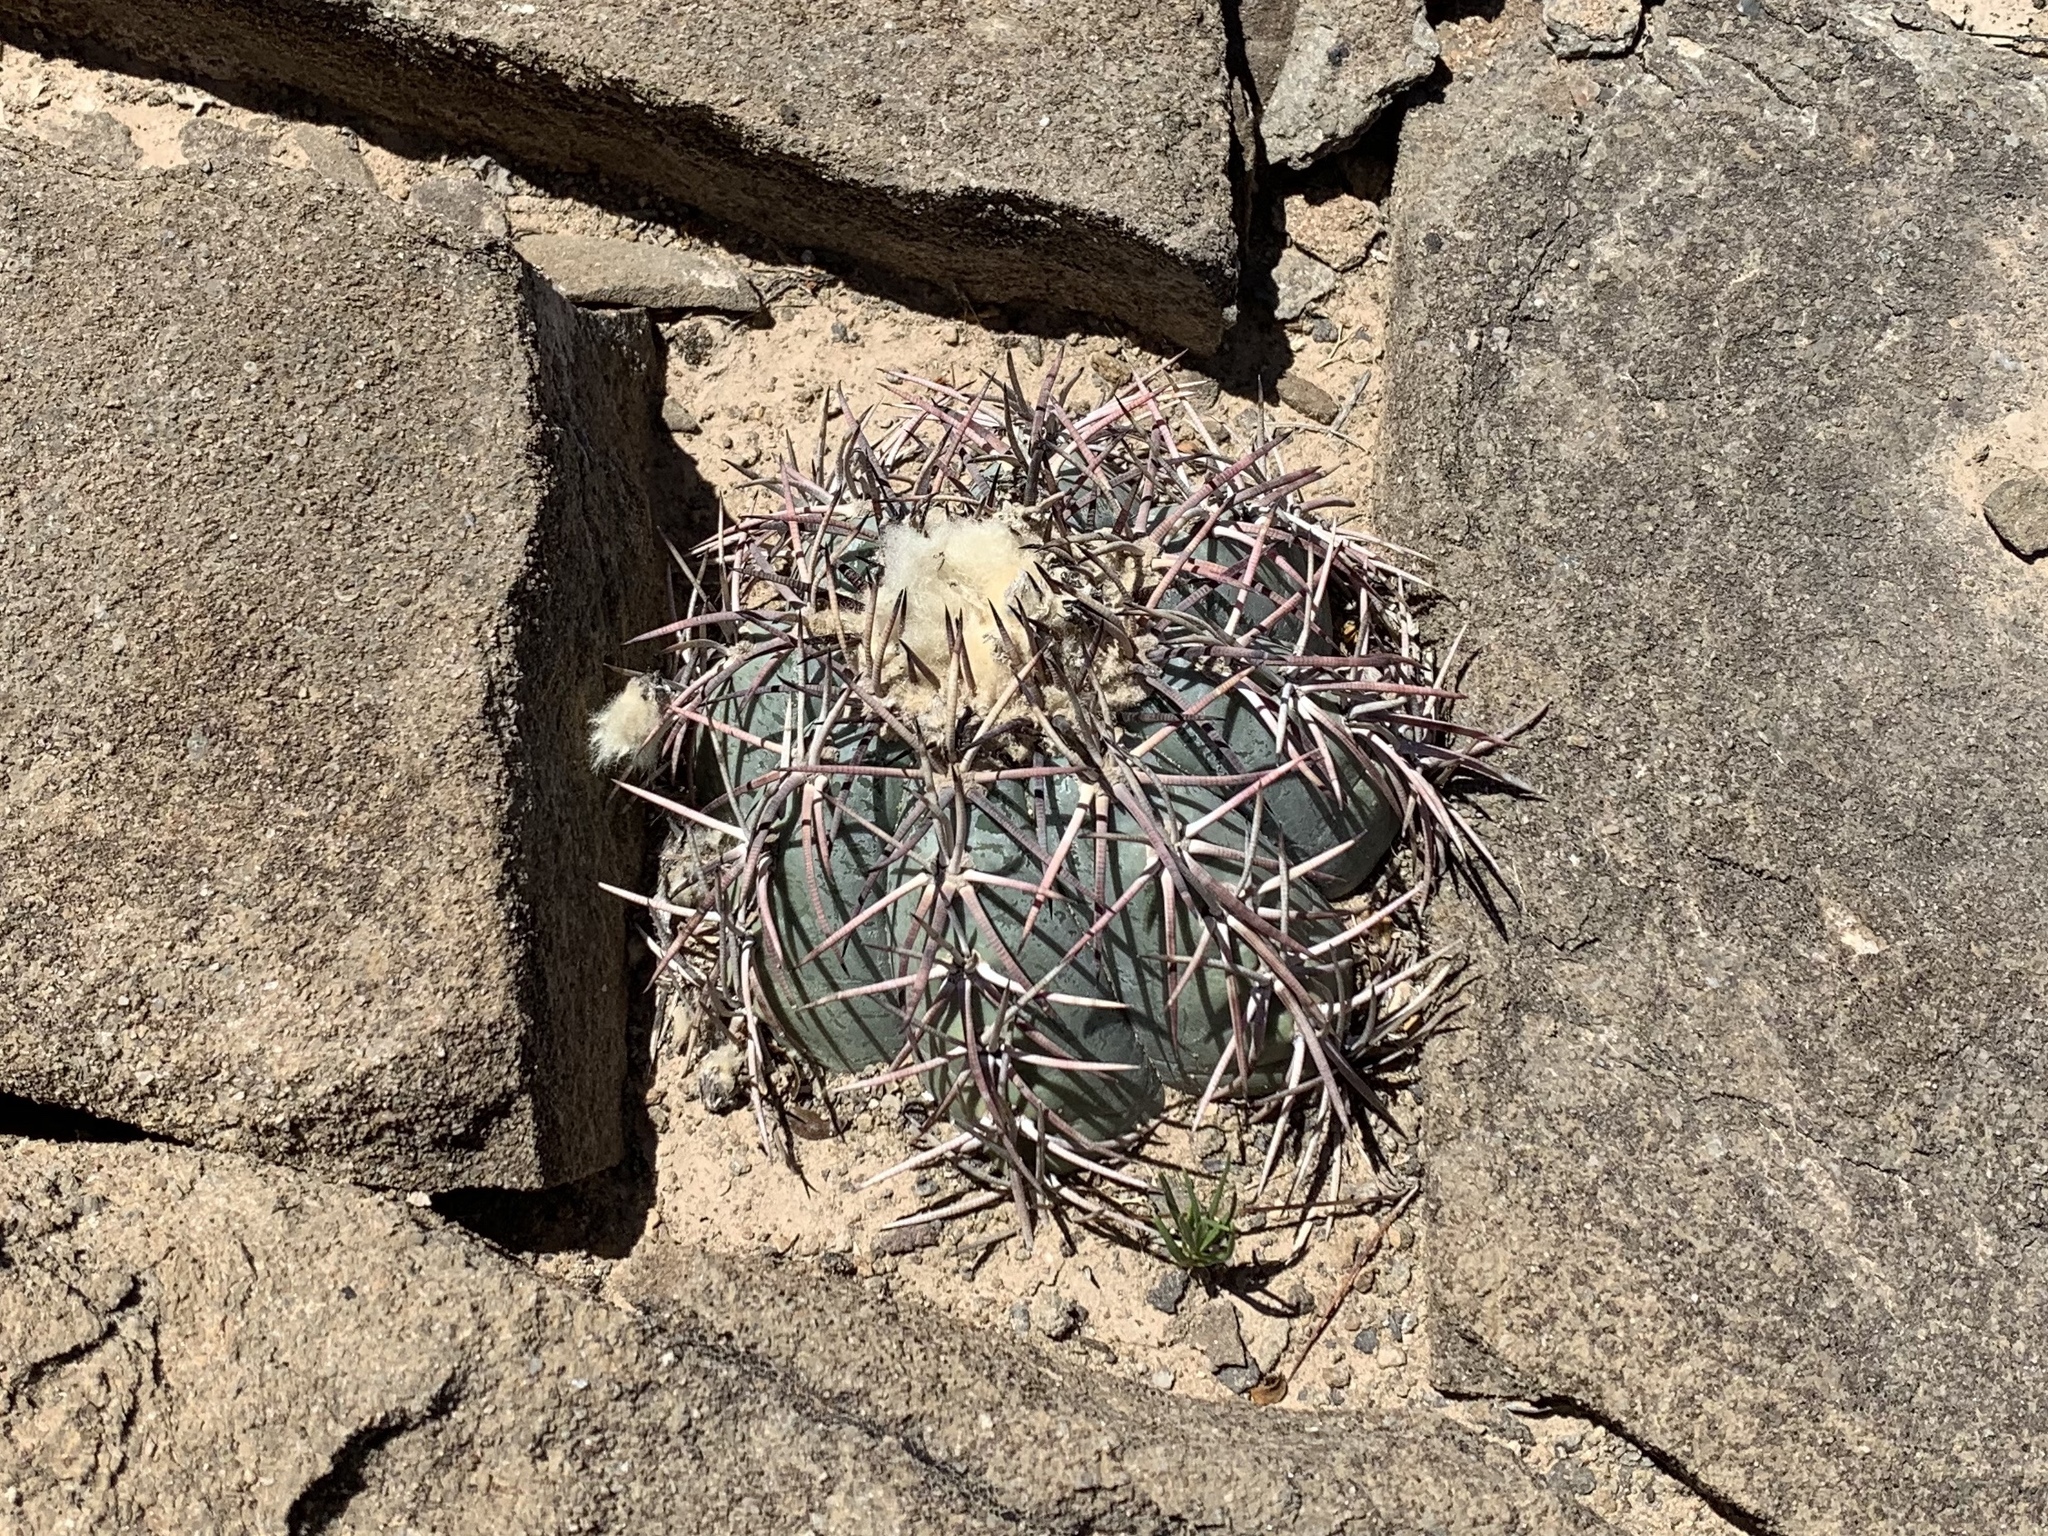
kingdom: Plantae
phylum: Tracheophyta
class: Magnoliopsida
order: Caryophyllales
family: Cactaceae
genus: Echinocactus
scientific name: Echinocactus horizonthalonius
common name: Devilshead
